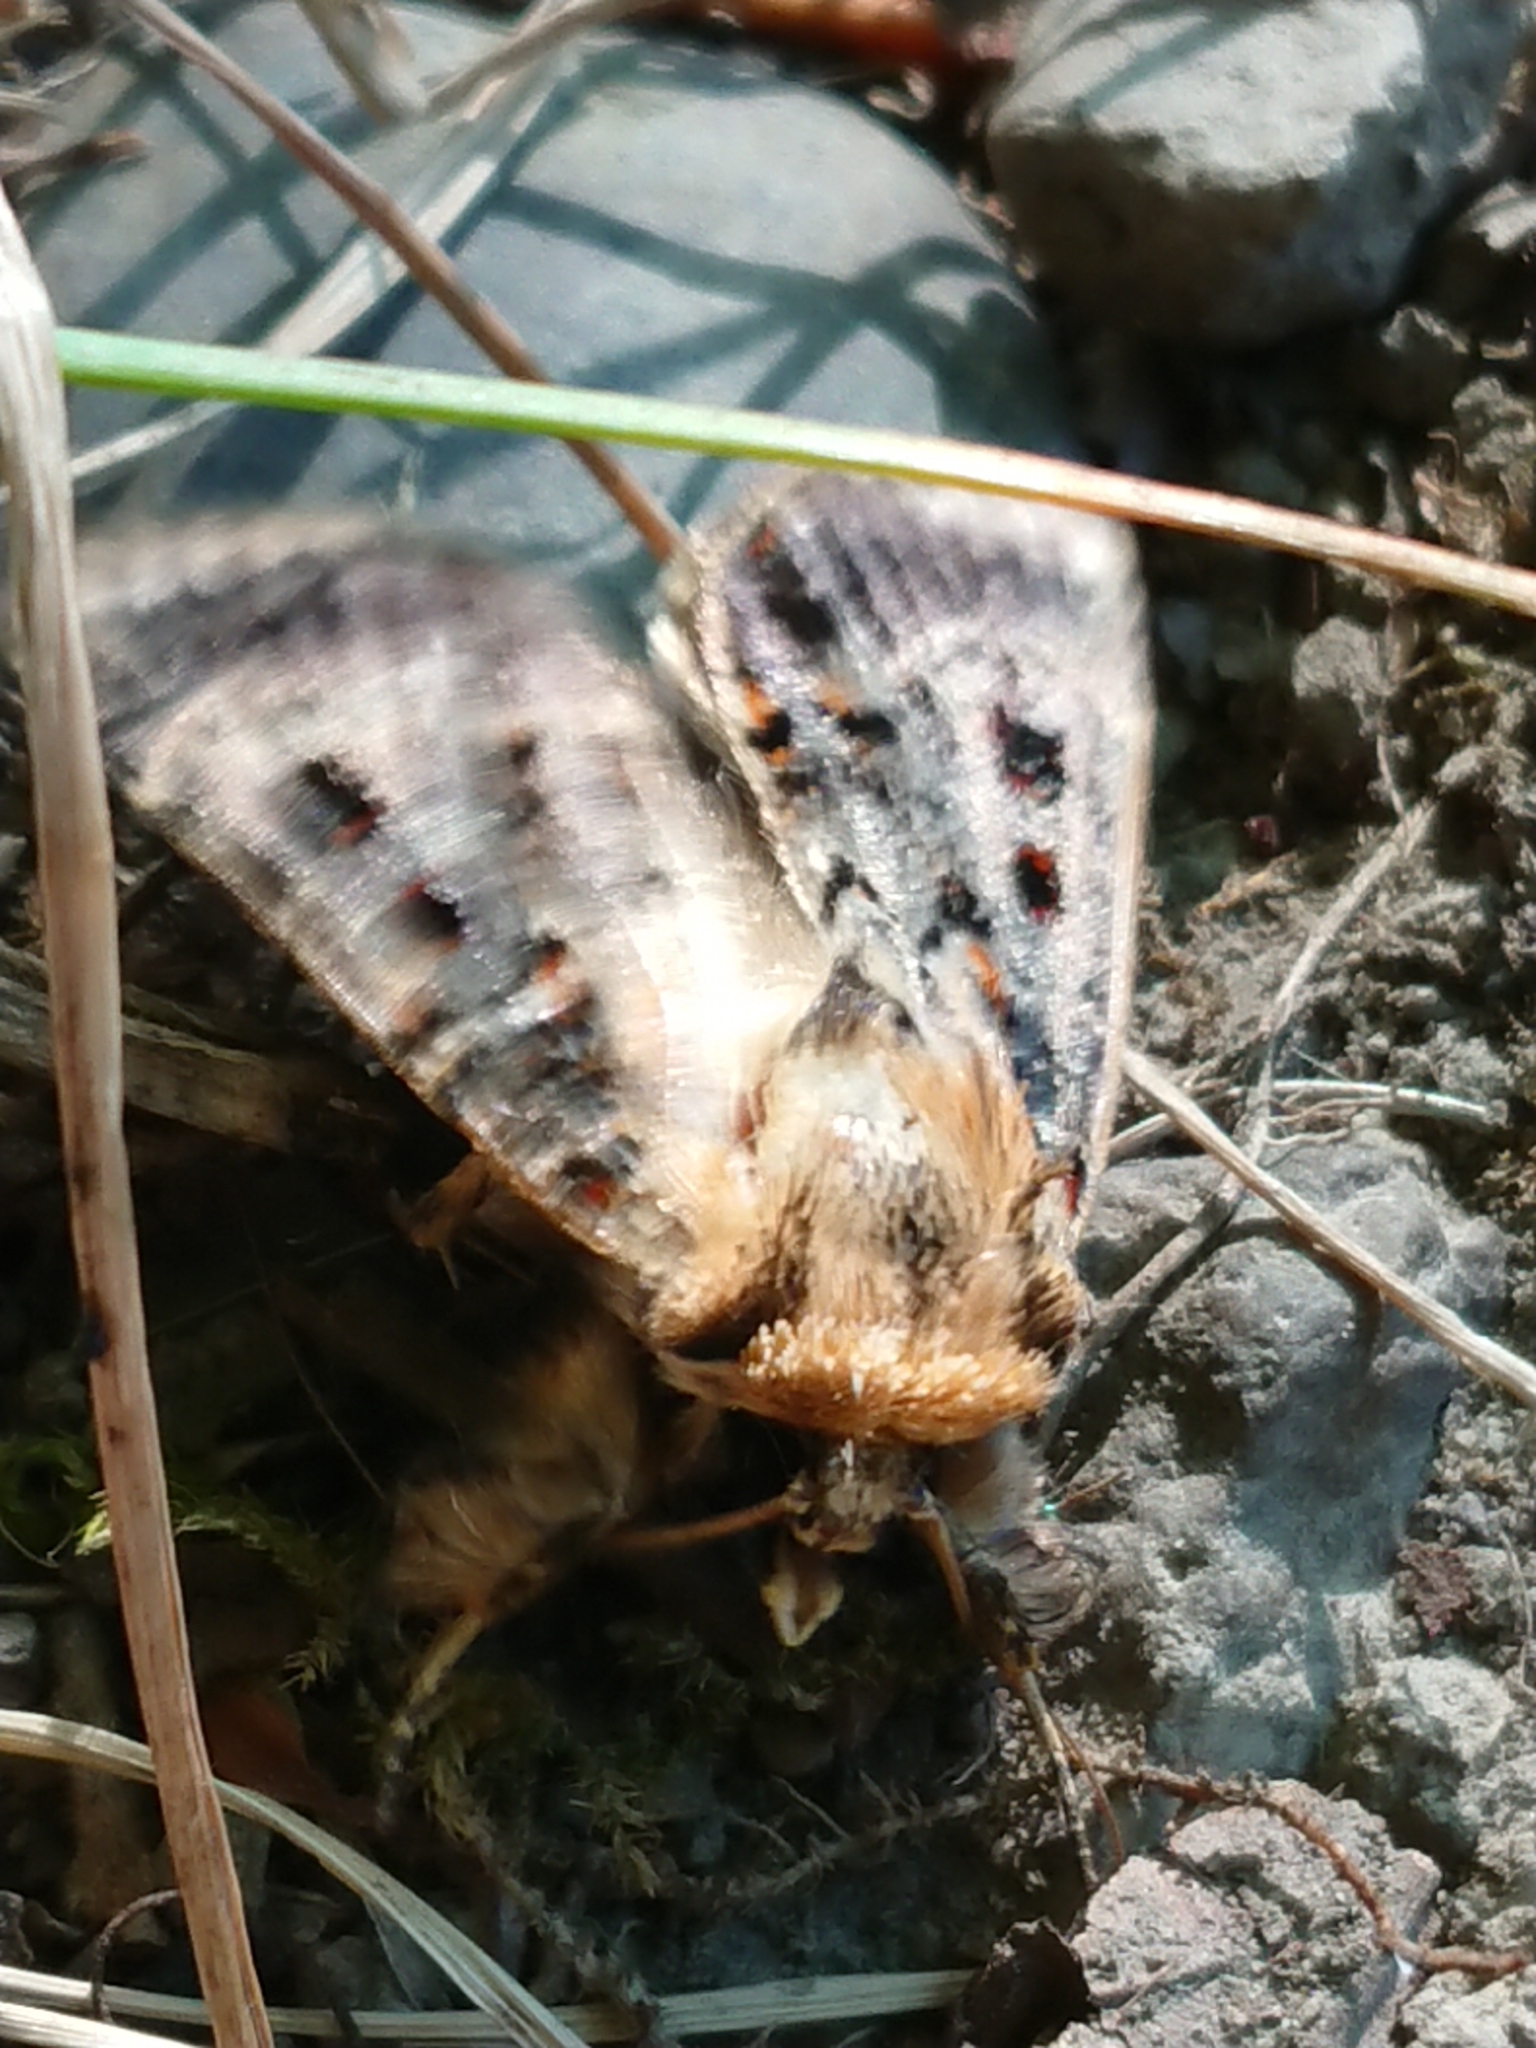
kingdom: Animalia
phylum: Arthropoda
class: Insecta
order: Lepidoptera
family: Noctuidae
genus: Proteuxoa
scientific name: Proteuxoa sanguinipuncta
